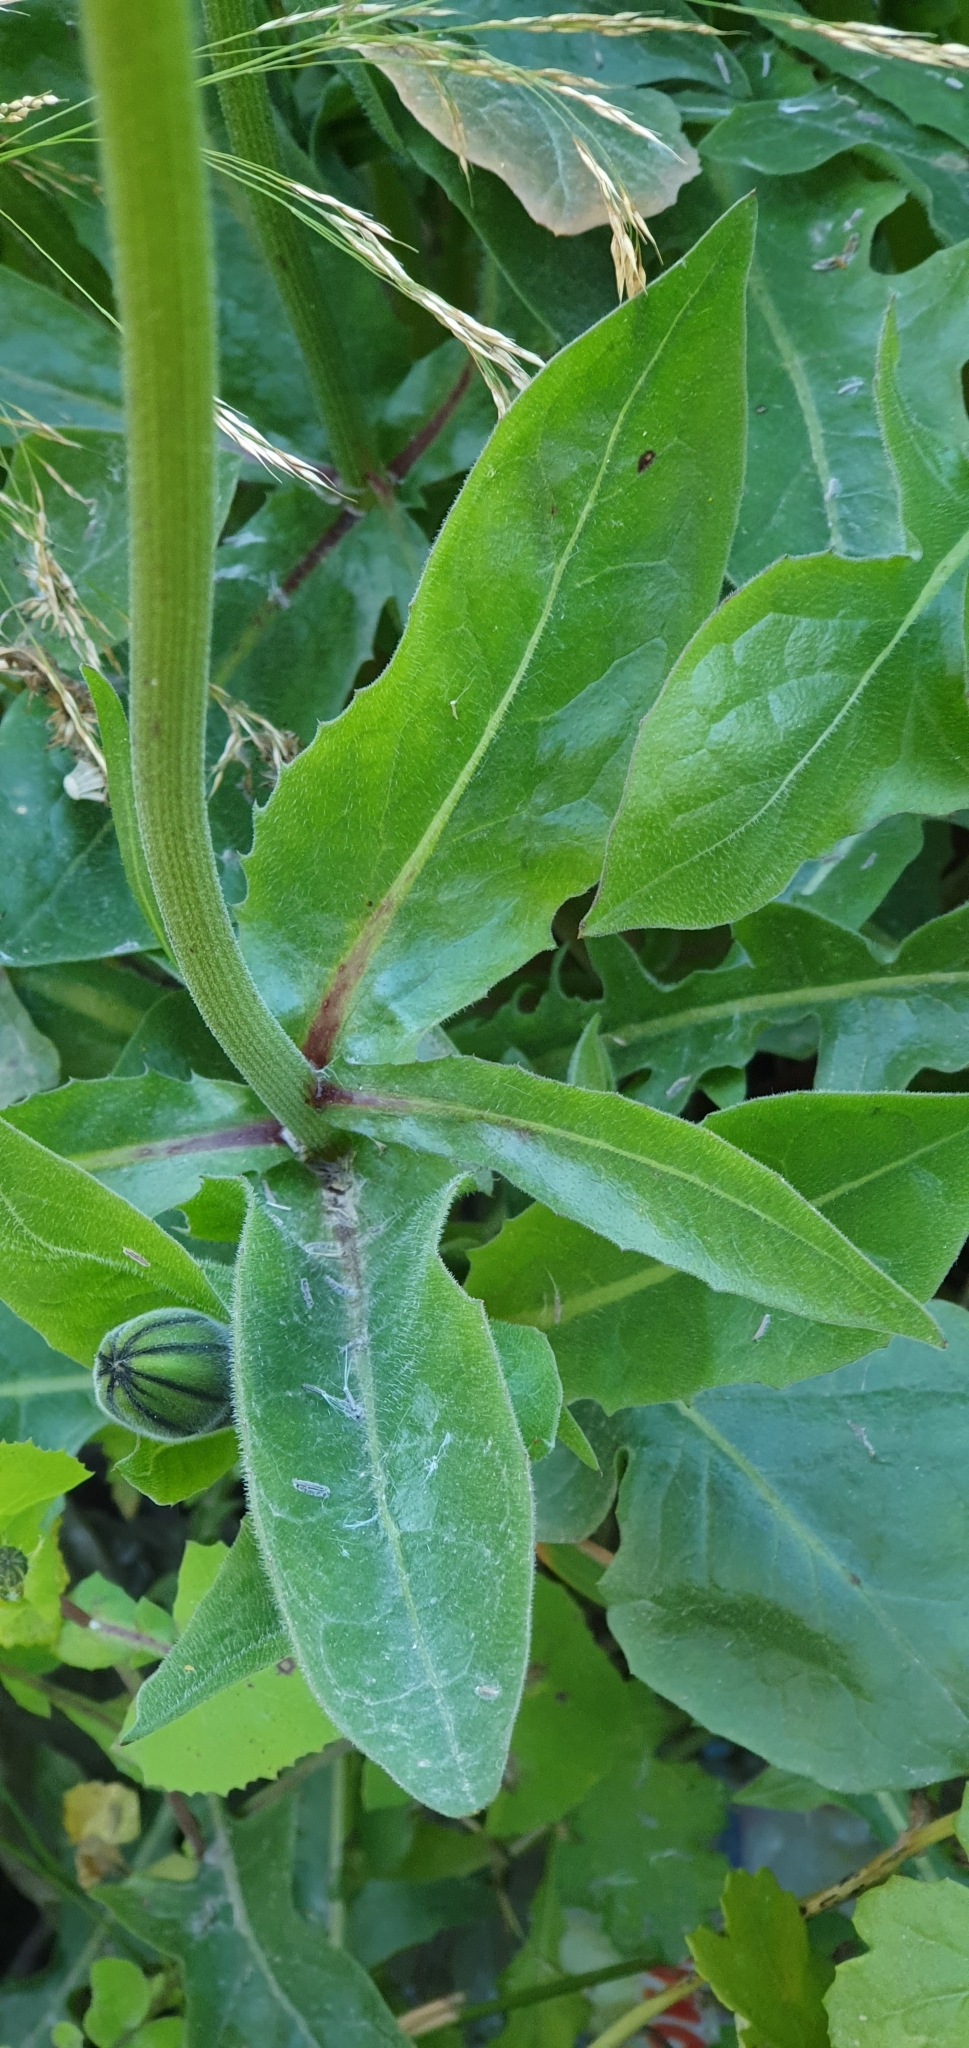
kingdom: Plantae
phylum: Tracheophyta
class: Magnoliopsida
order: Asterales
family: Asteraceae
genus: Urospermum
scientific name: Urospermum dalechampii
